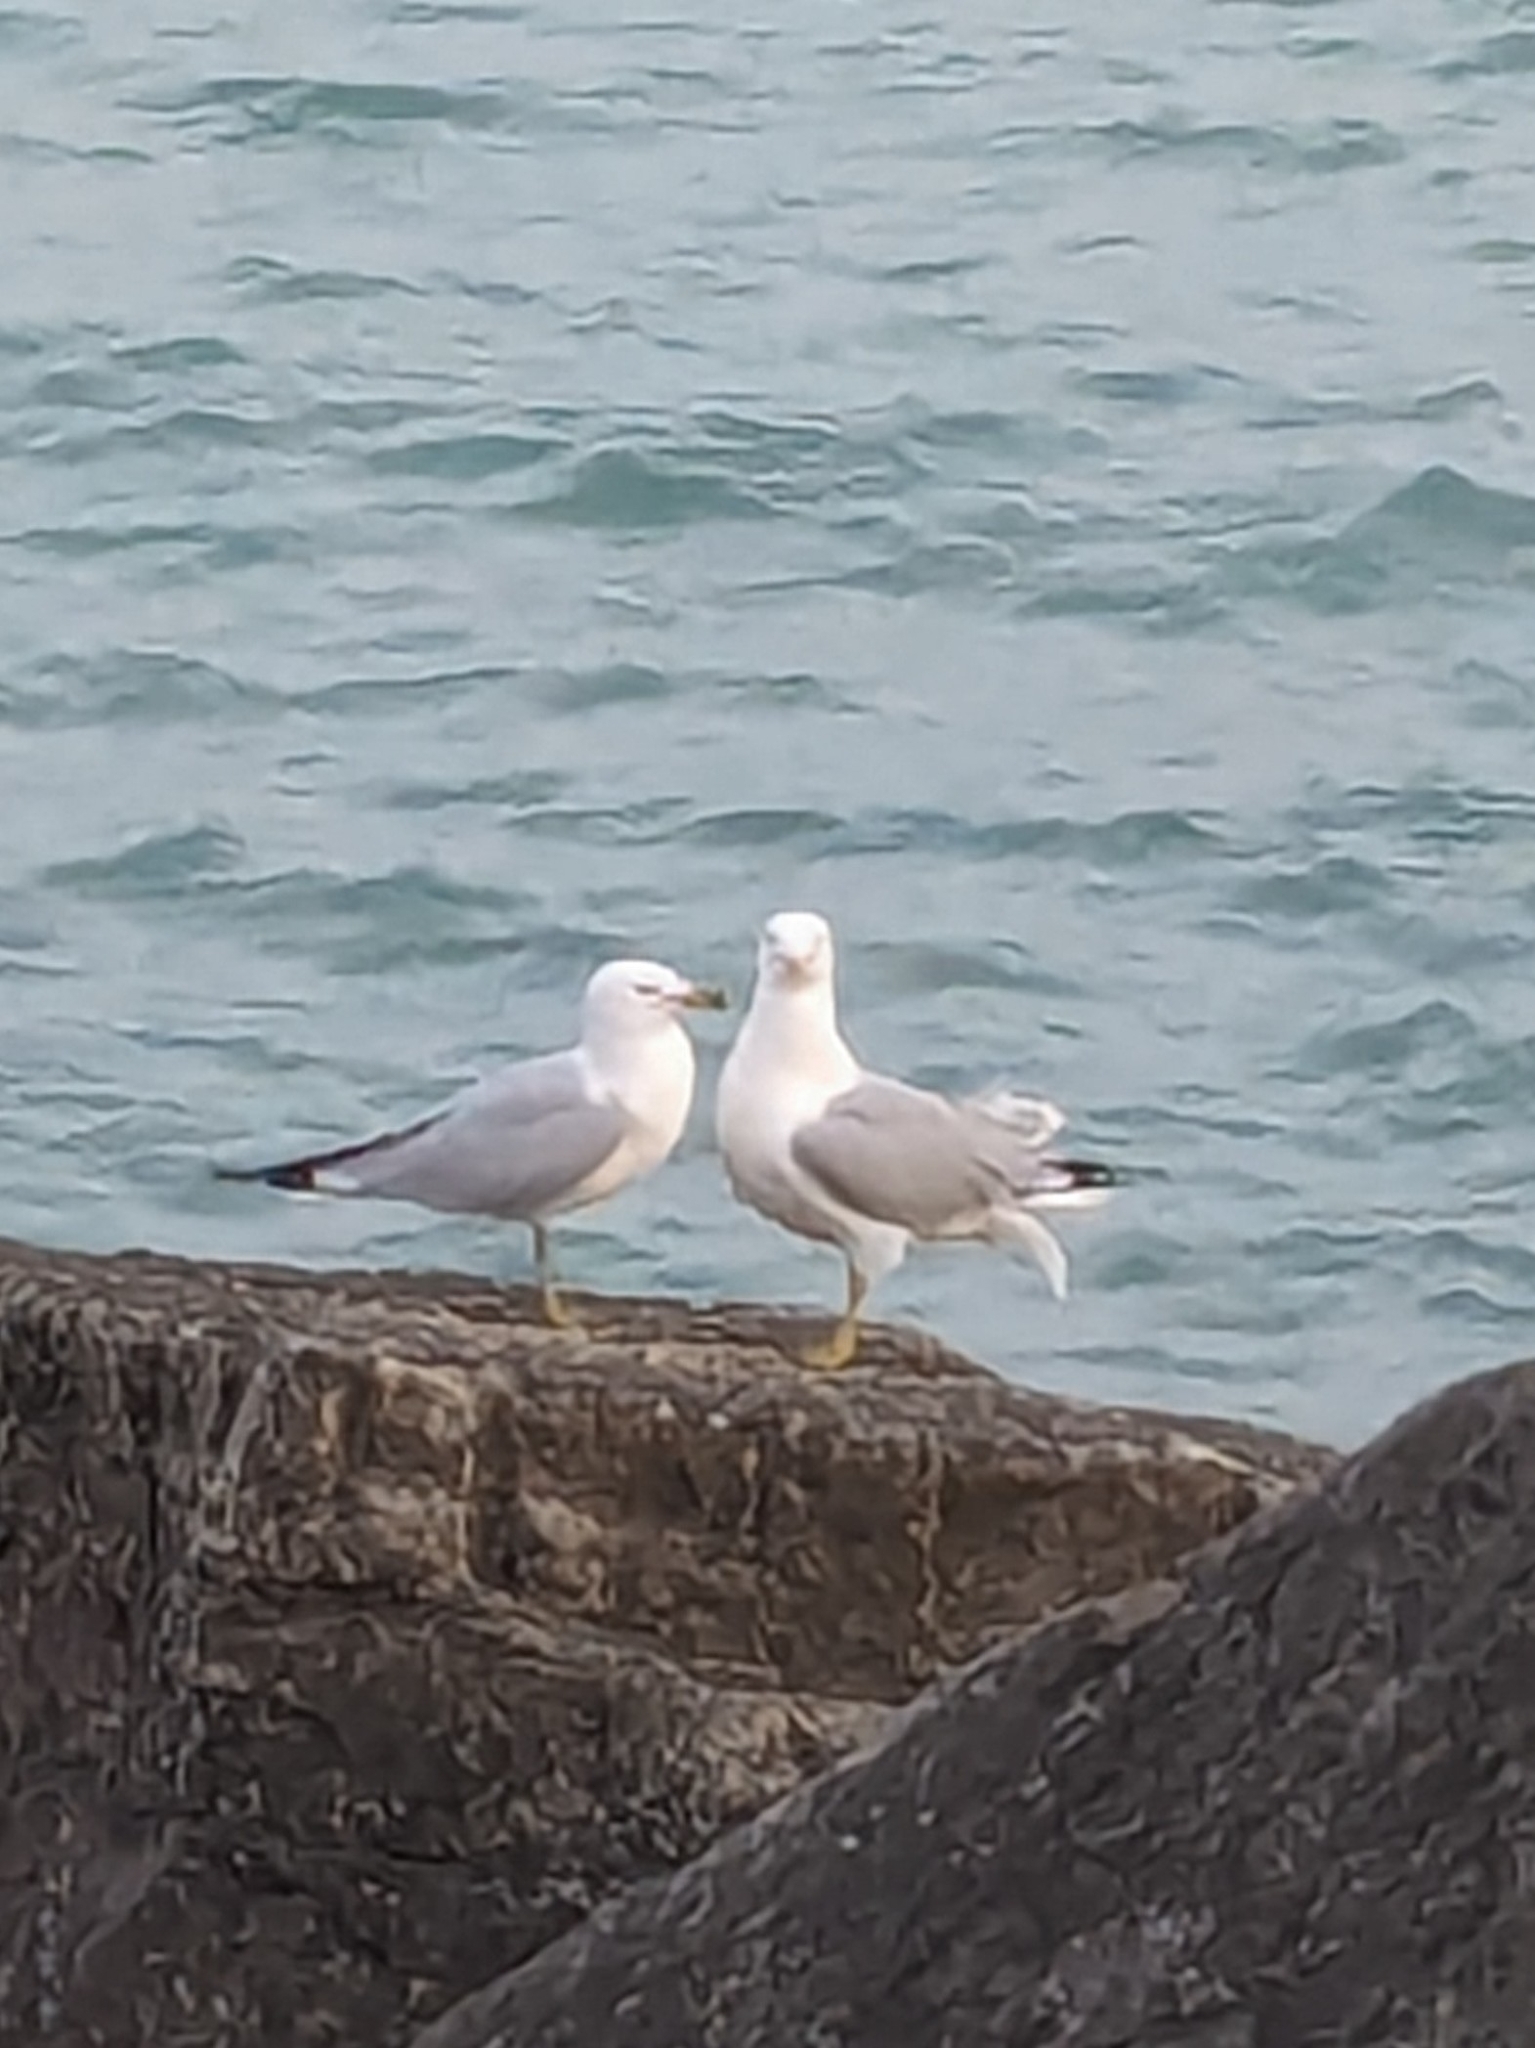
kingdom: Animalia
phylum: Chordata
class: Aves
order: Charadriiformes
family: Laridae
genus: Larus
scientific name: Larus delawarensis
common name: Ring-billed gull
